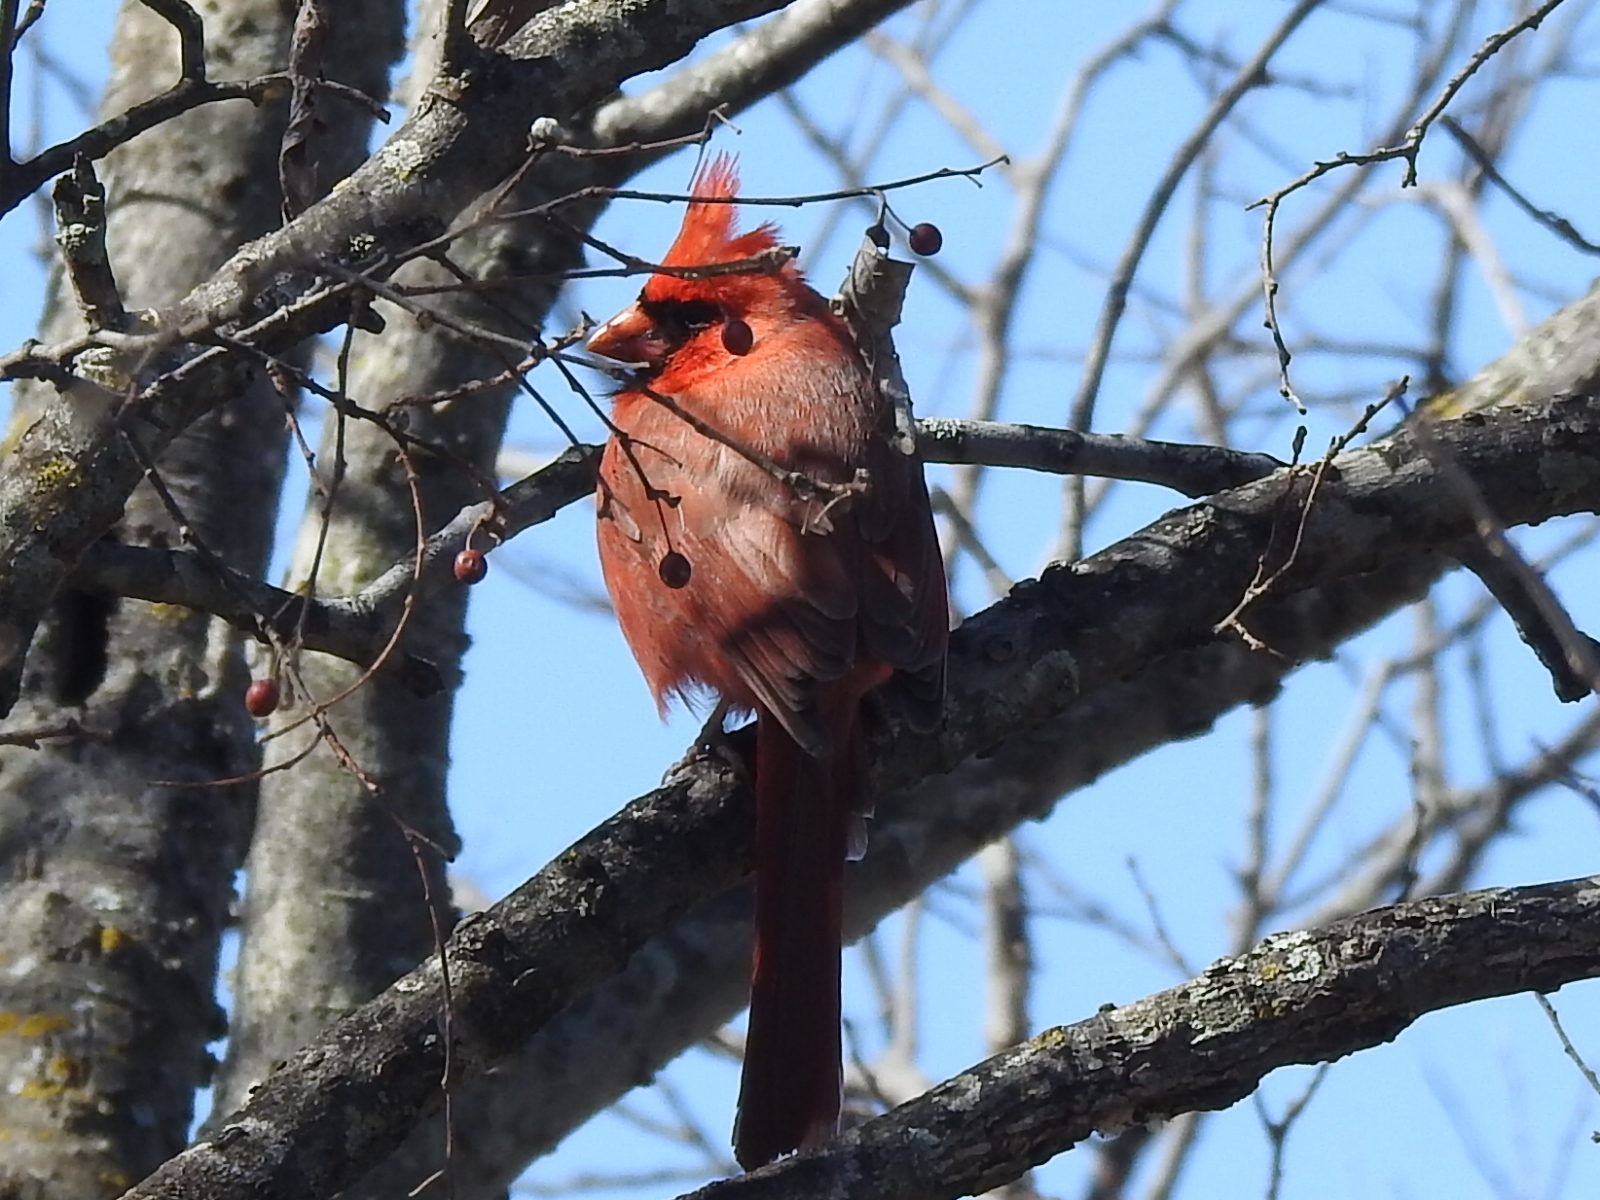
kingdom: Animalia
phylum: Chordata
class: Aves
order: Passeriformes
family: Cardinalidae
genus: Cardinalis
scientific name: Cardinalis cardinalis
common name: Northern cardinal
